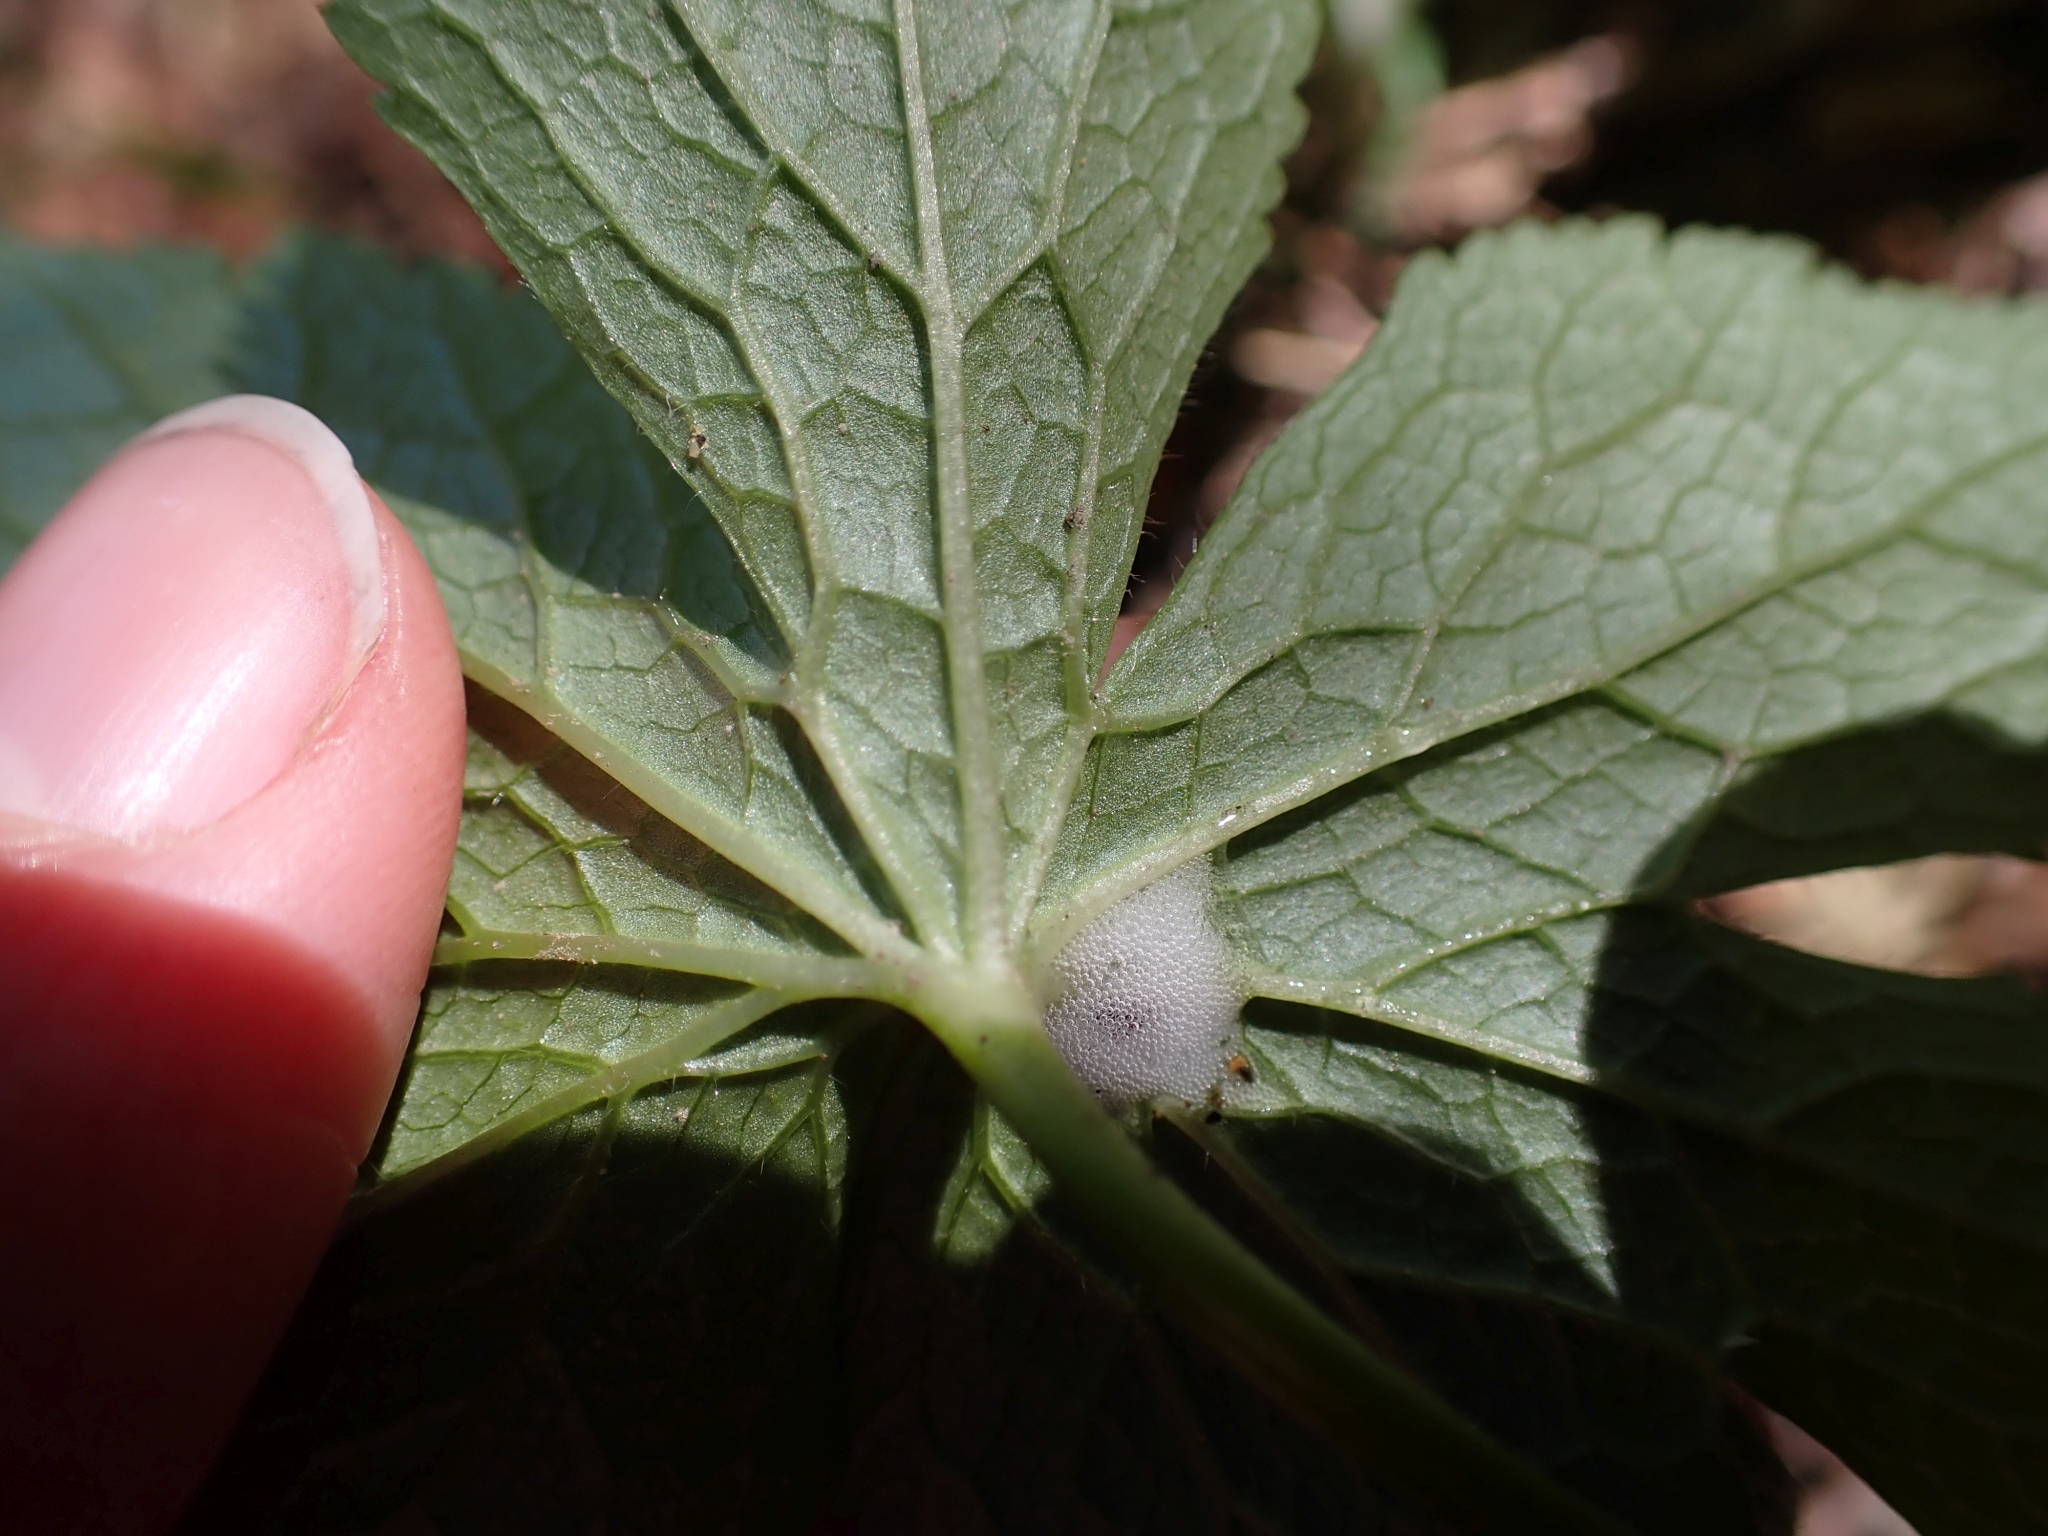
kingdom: Plantae
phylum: Tracheophyta
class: Magnoliopsida
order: Ranunculales
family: Ranunculaceae
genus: Trautvetteria
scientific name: Trautvetteria carolinensis
